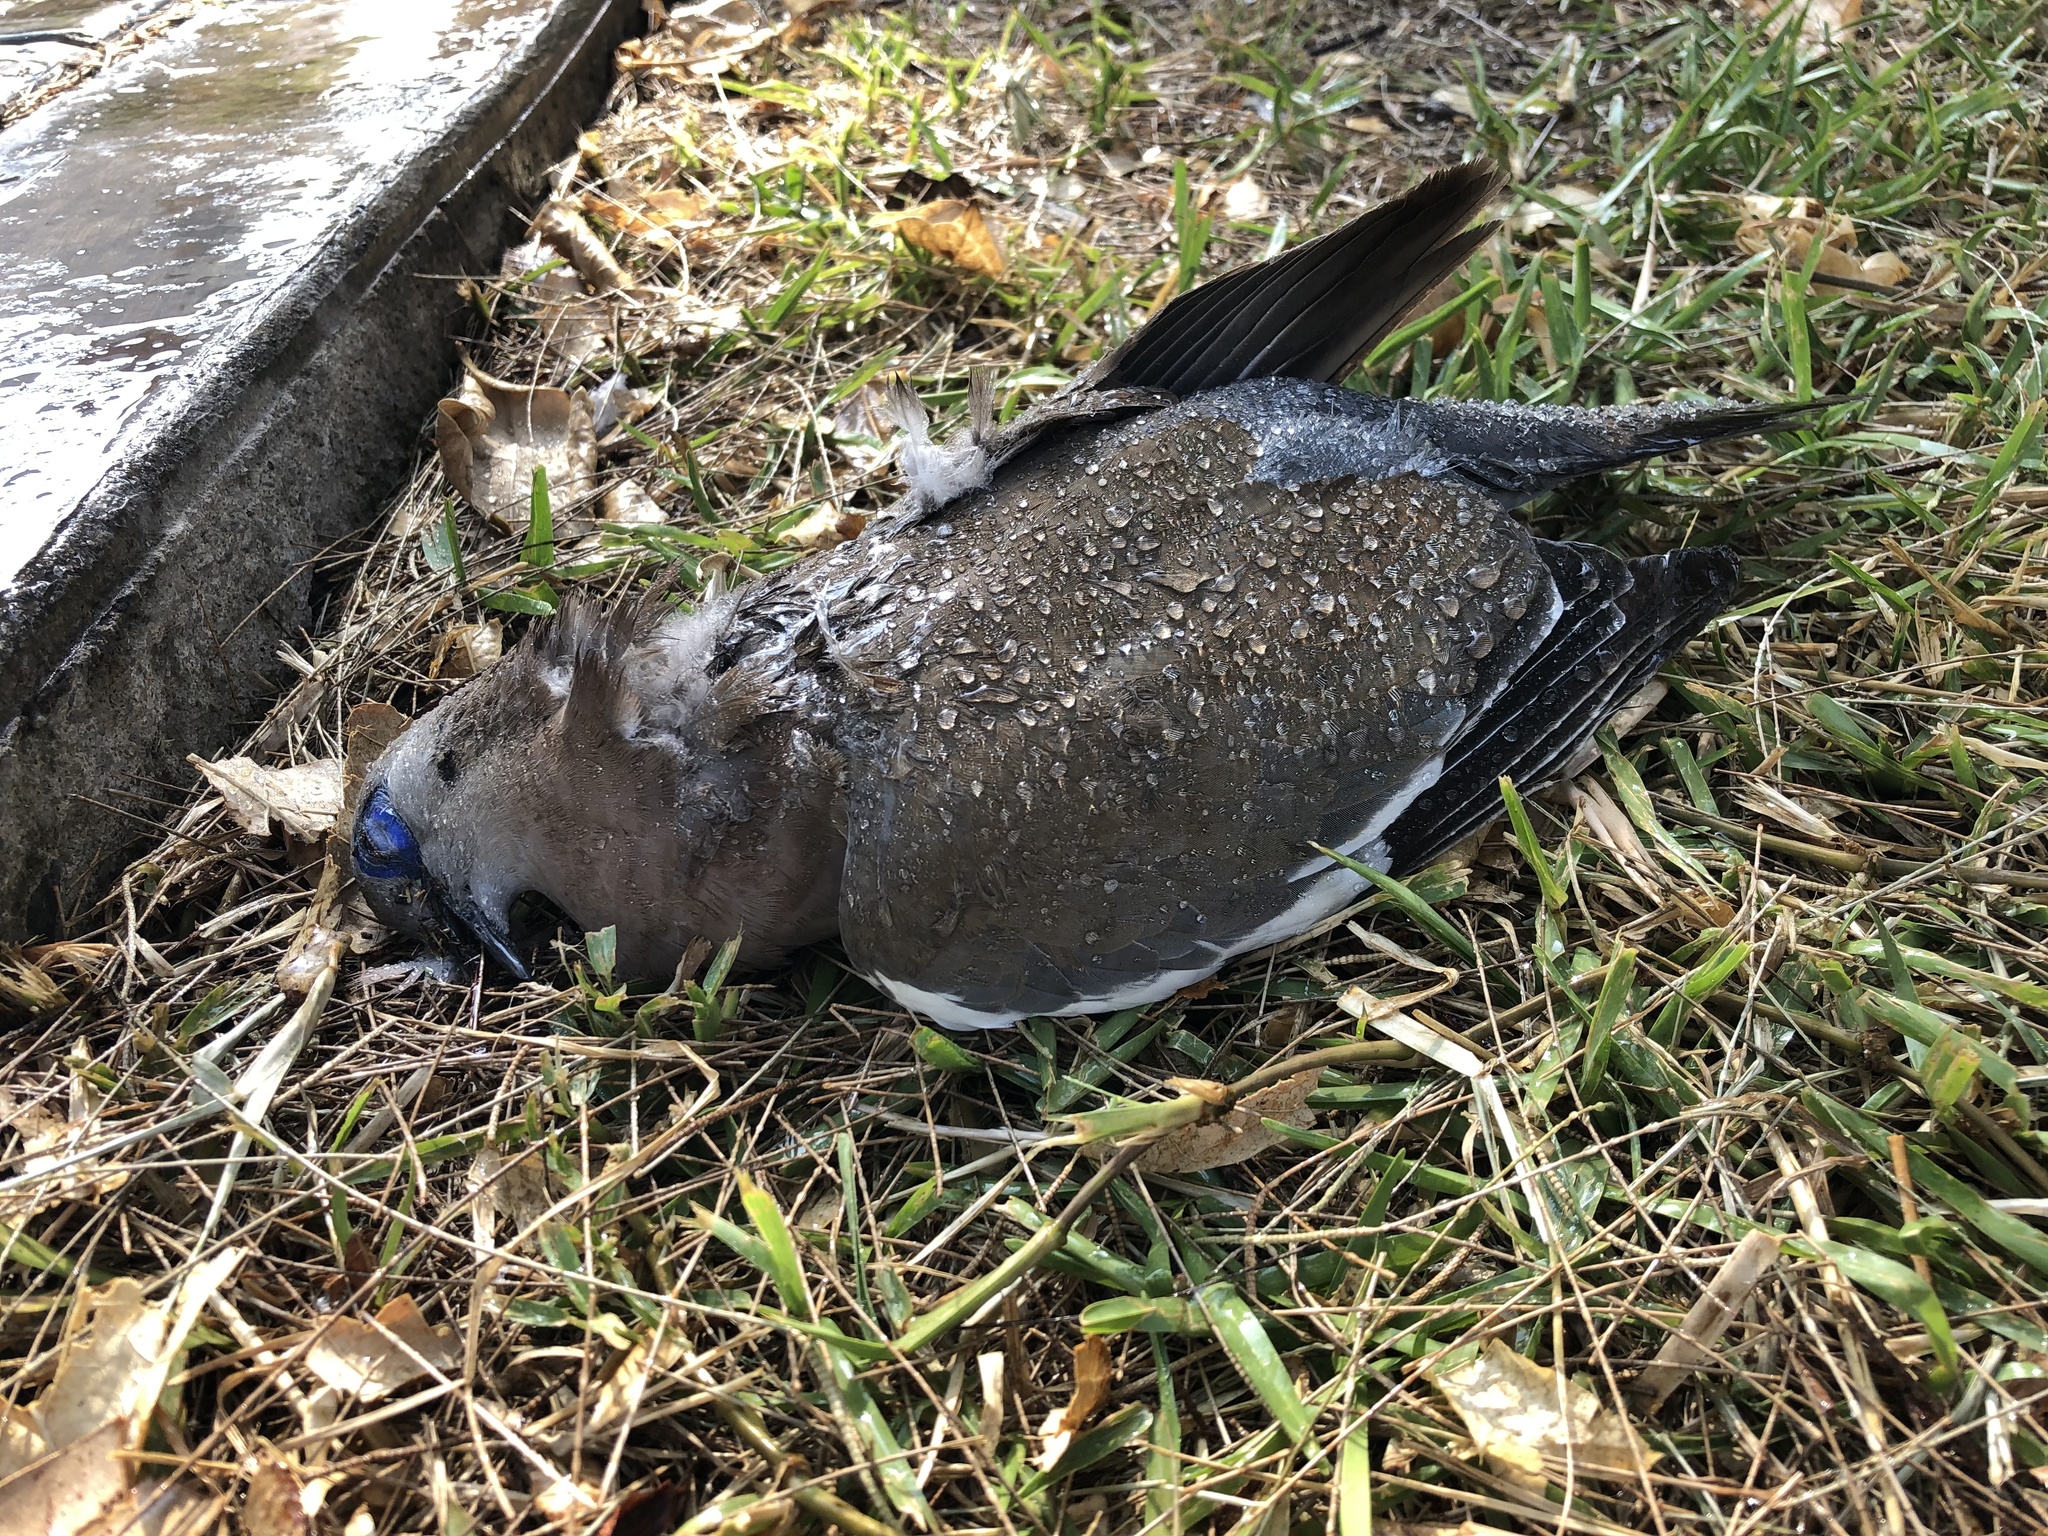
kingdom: Animalia
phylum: Chordata
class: Aves
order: Columbiformes
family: Columbidae
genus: Zenaida
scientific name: Zenaida meloda
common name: West peruvian dove
